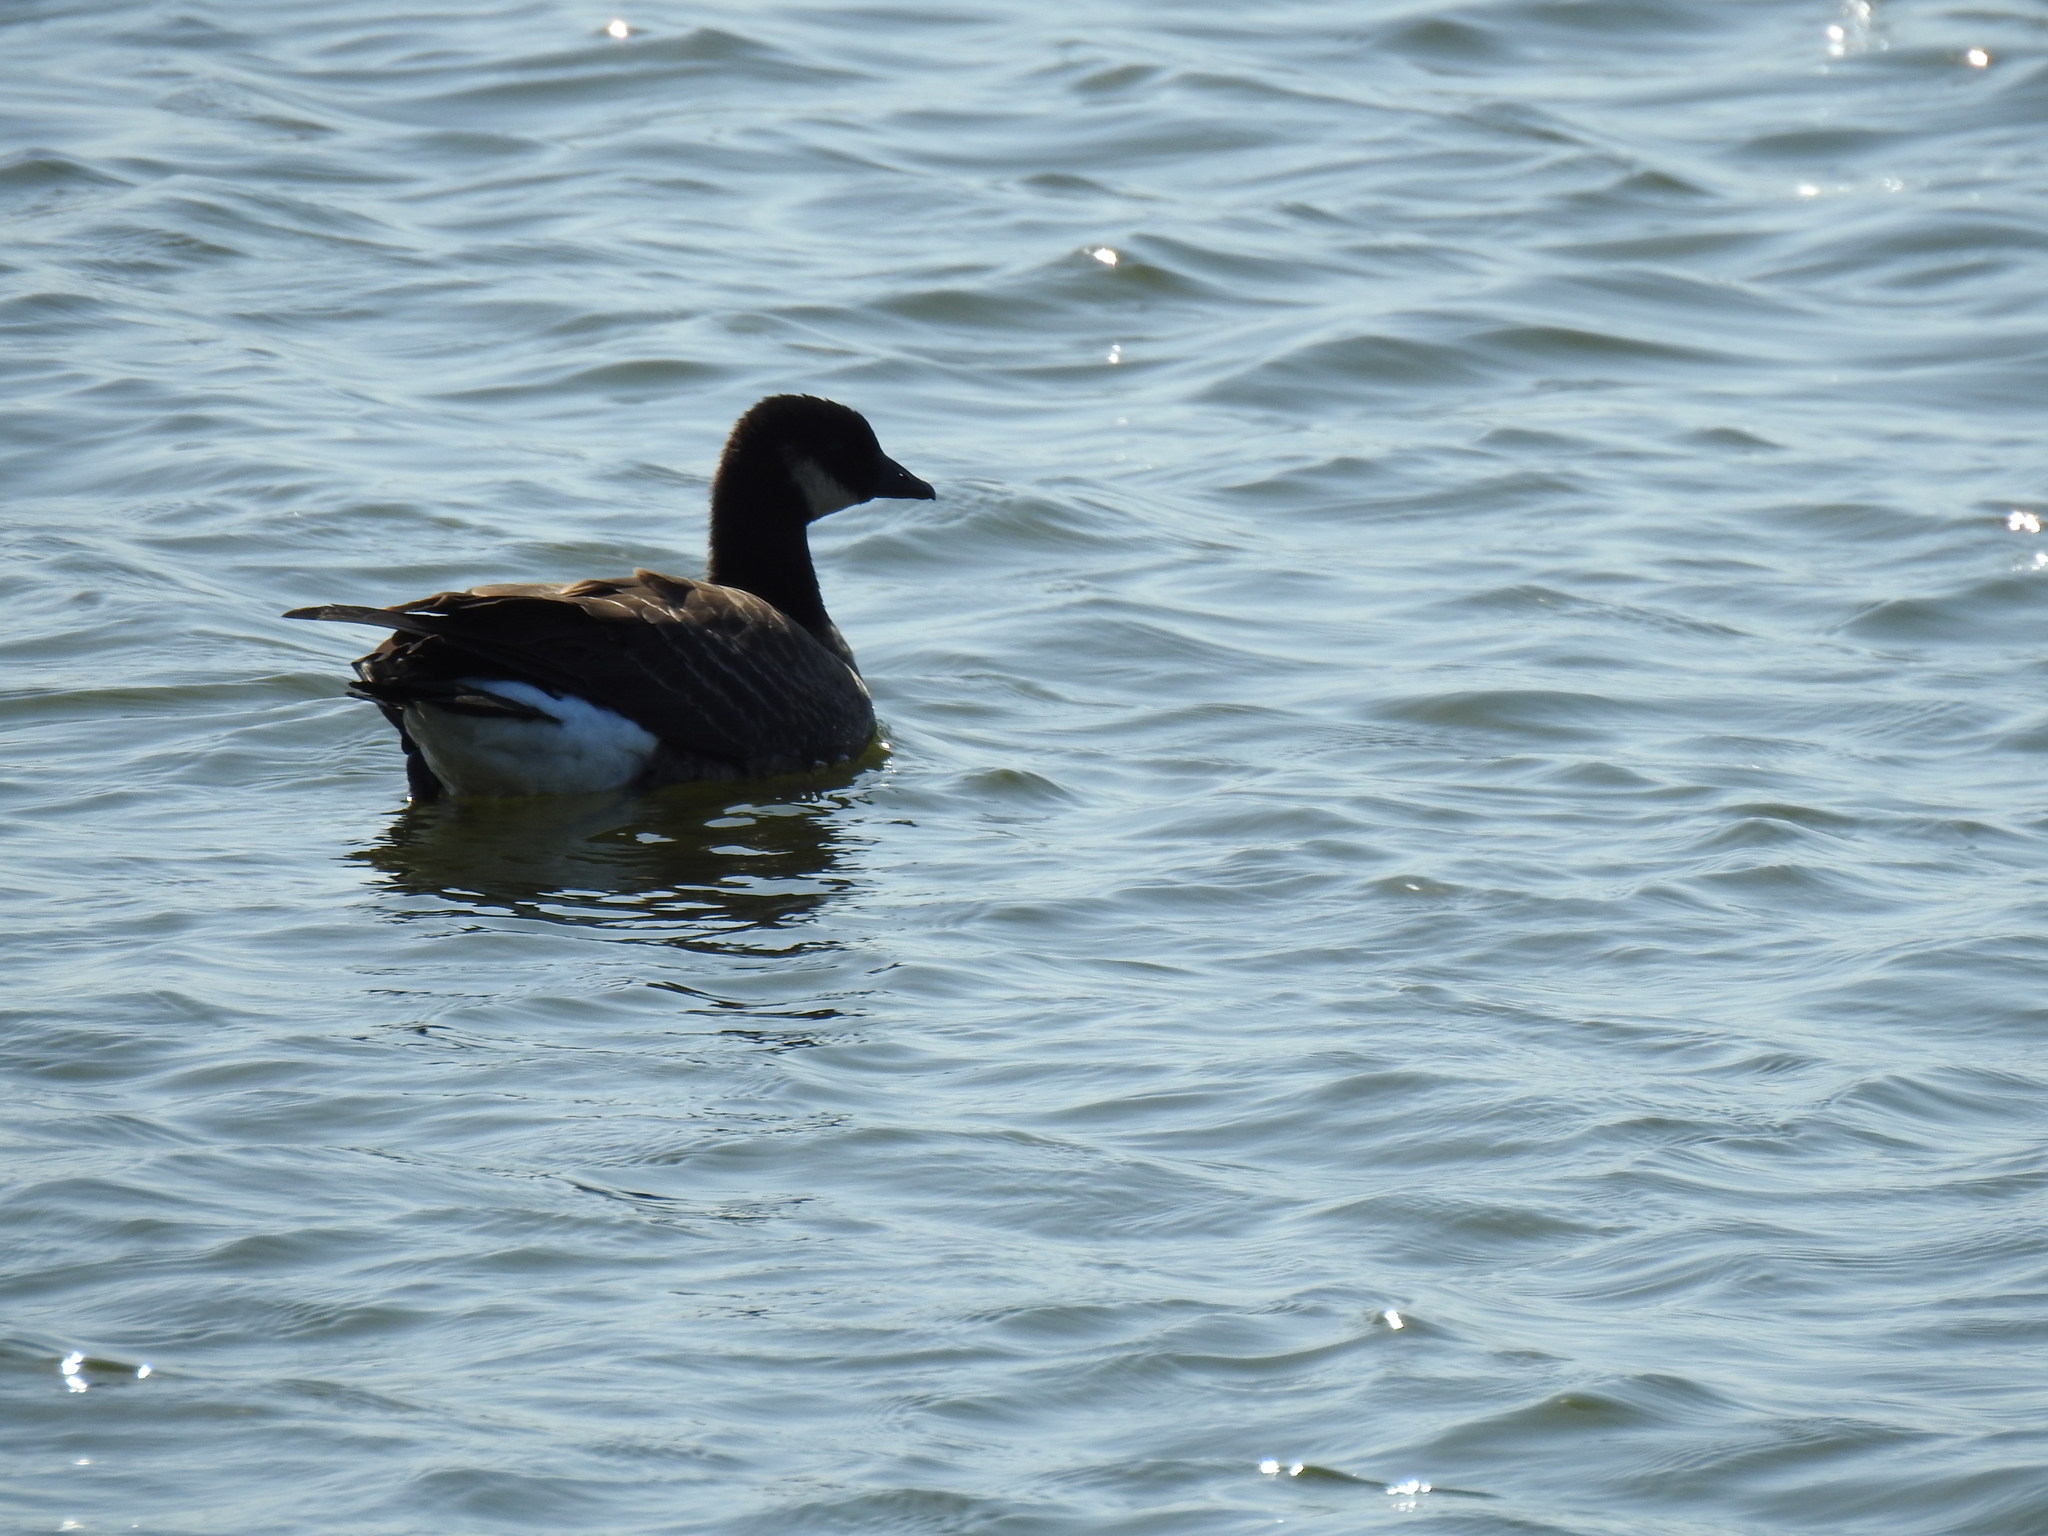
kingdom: Animalia
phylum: Chordata
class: Aves
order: Anseriformes
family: Anatidae
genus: Branta
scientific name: Branta hutchinsii
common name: Cackling goose
